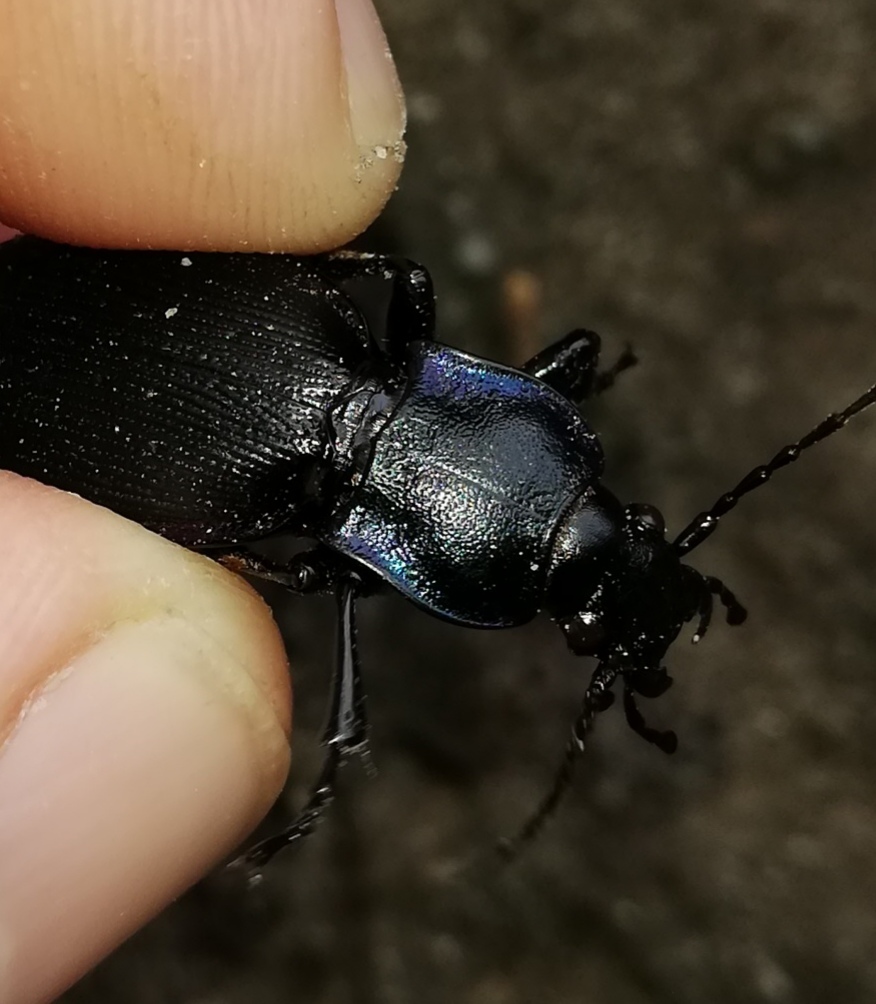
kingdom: Animalia
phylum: Arthropoda
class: Insecta
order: Coleoptera
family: Carabidae
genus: Carabus
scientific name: Carabus purpurascens
